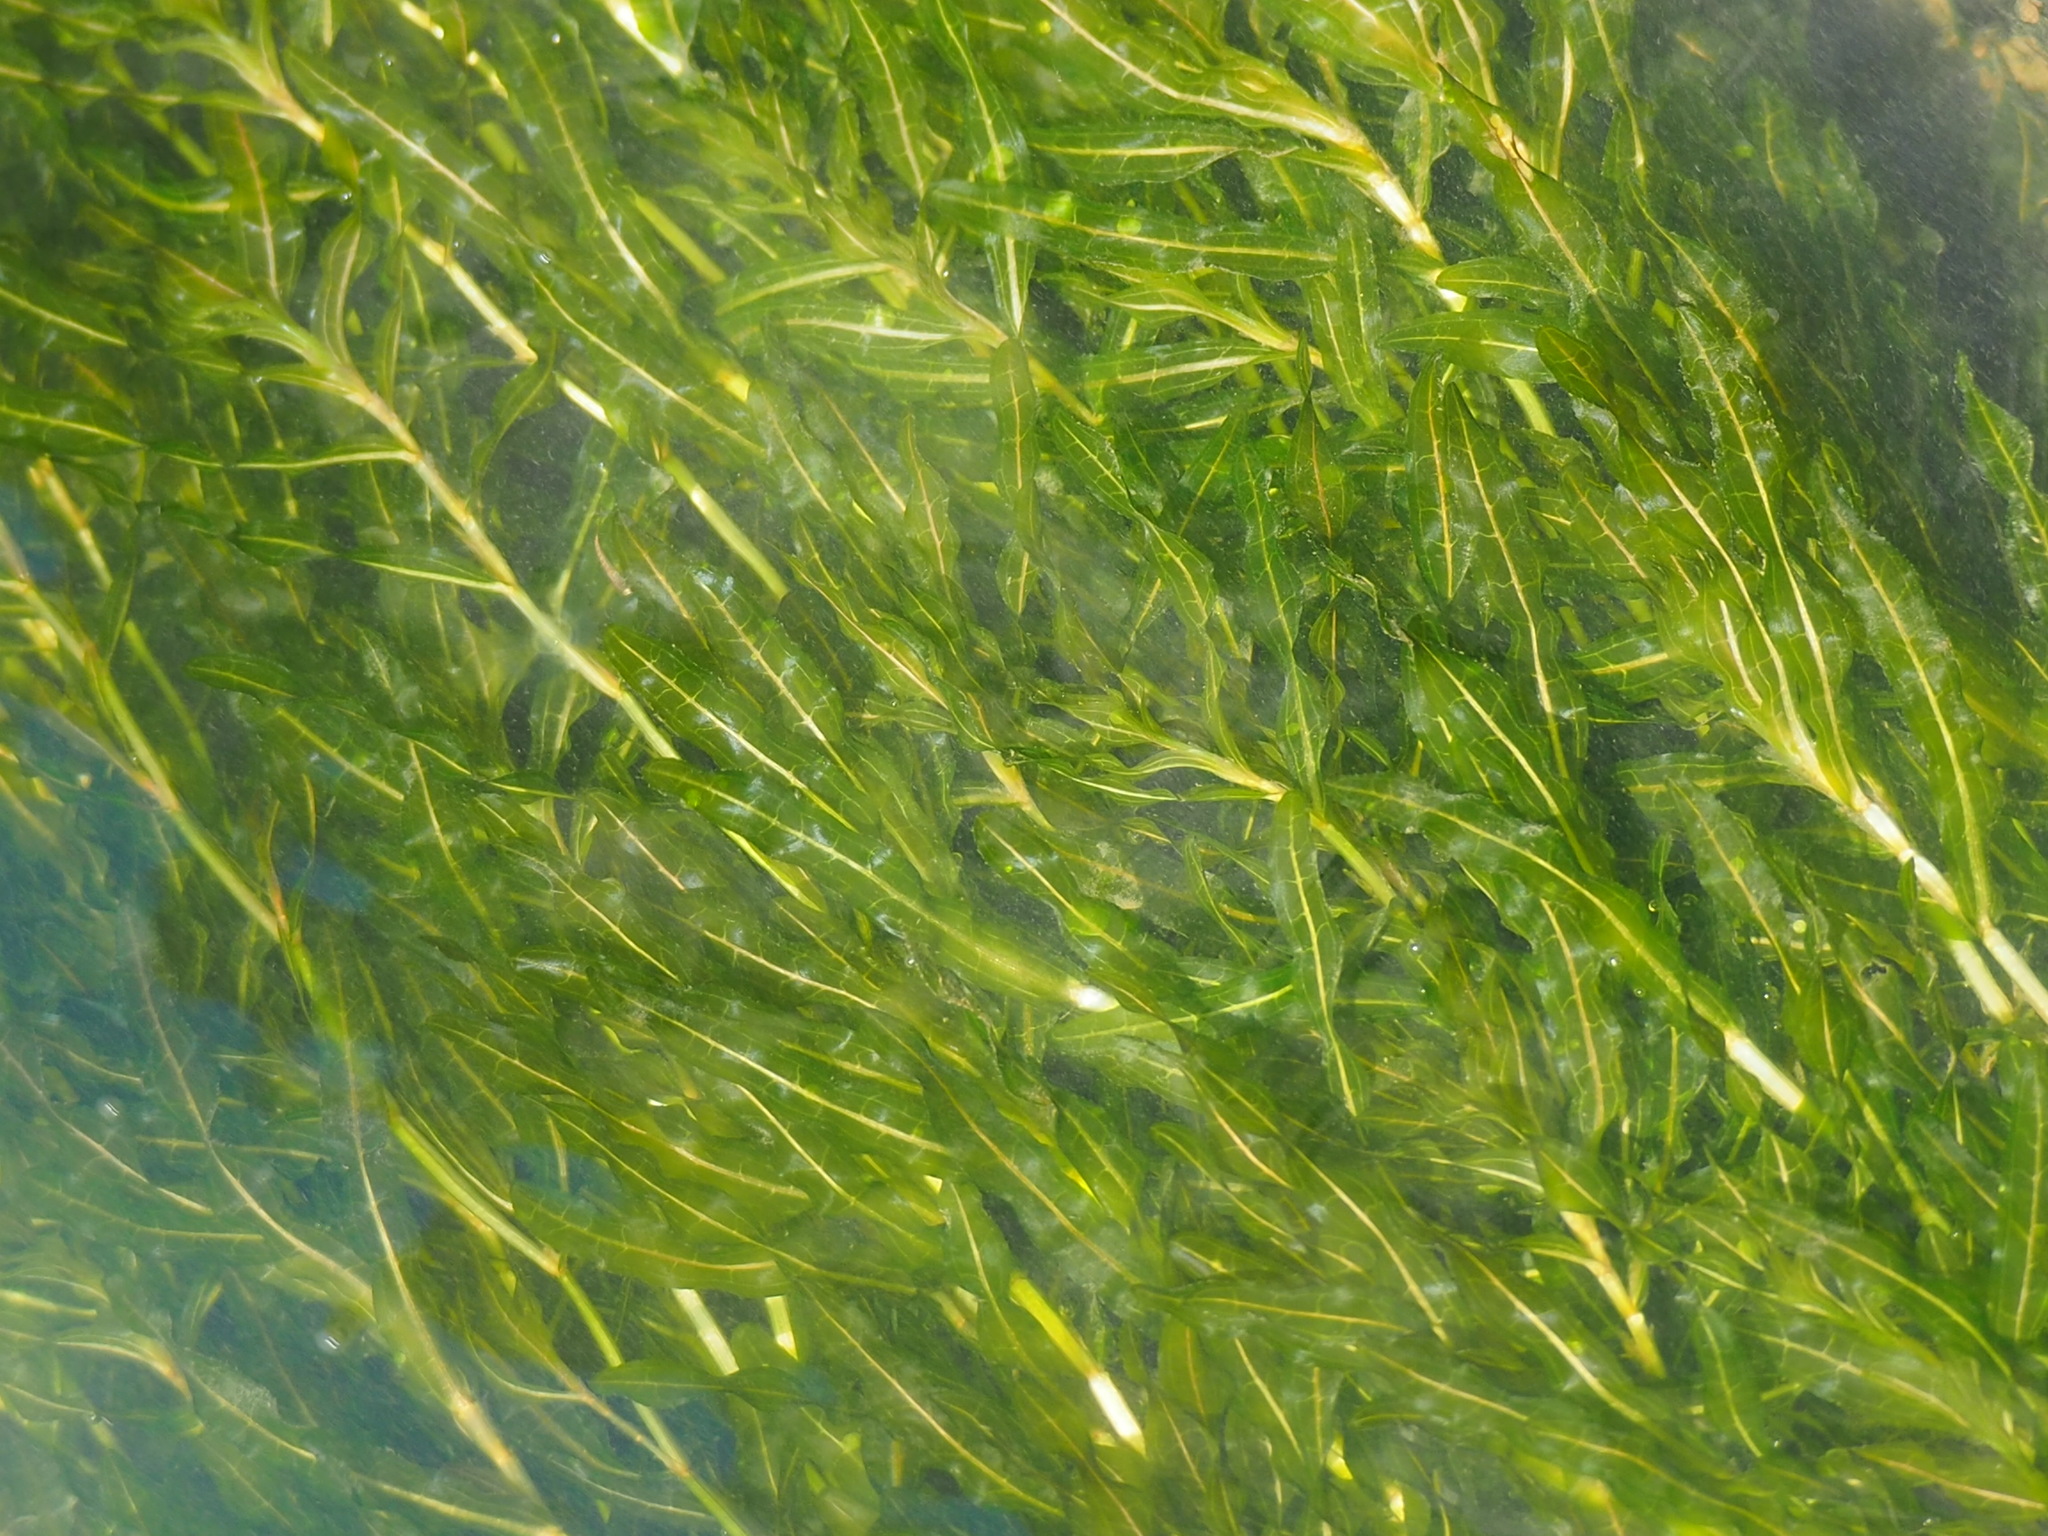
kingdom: Plantae
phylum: Tracheophyta
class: Liliopsida
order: Alismatales
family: Potamogetonaceae
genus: Potamogeton
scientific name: Potamogeton crispus
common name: Curled pondweed
